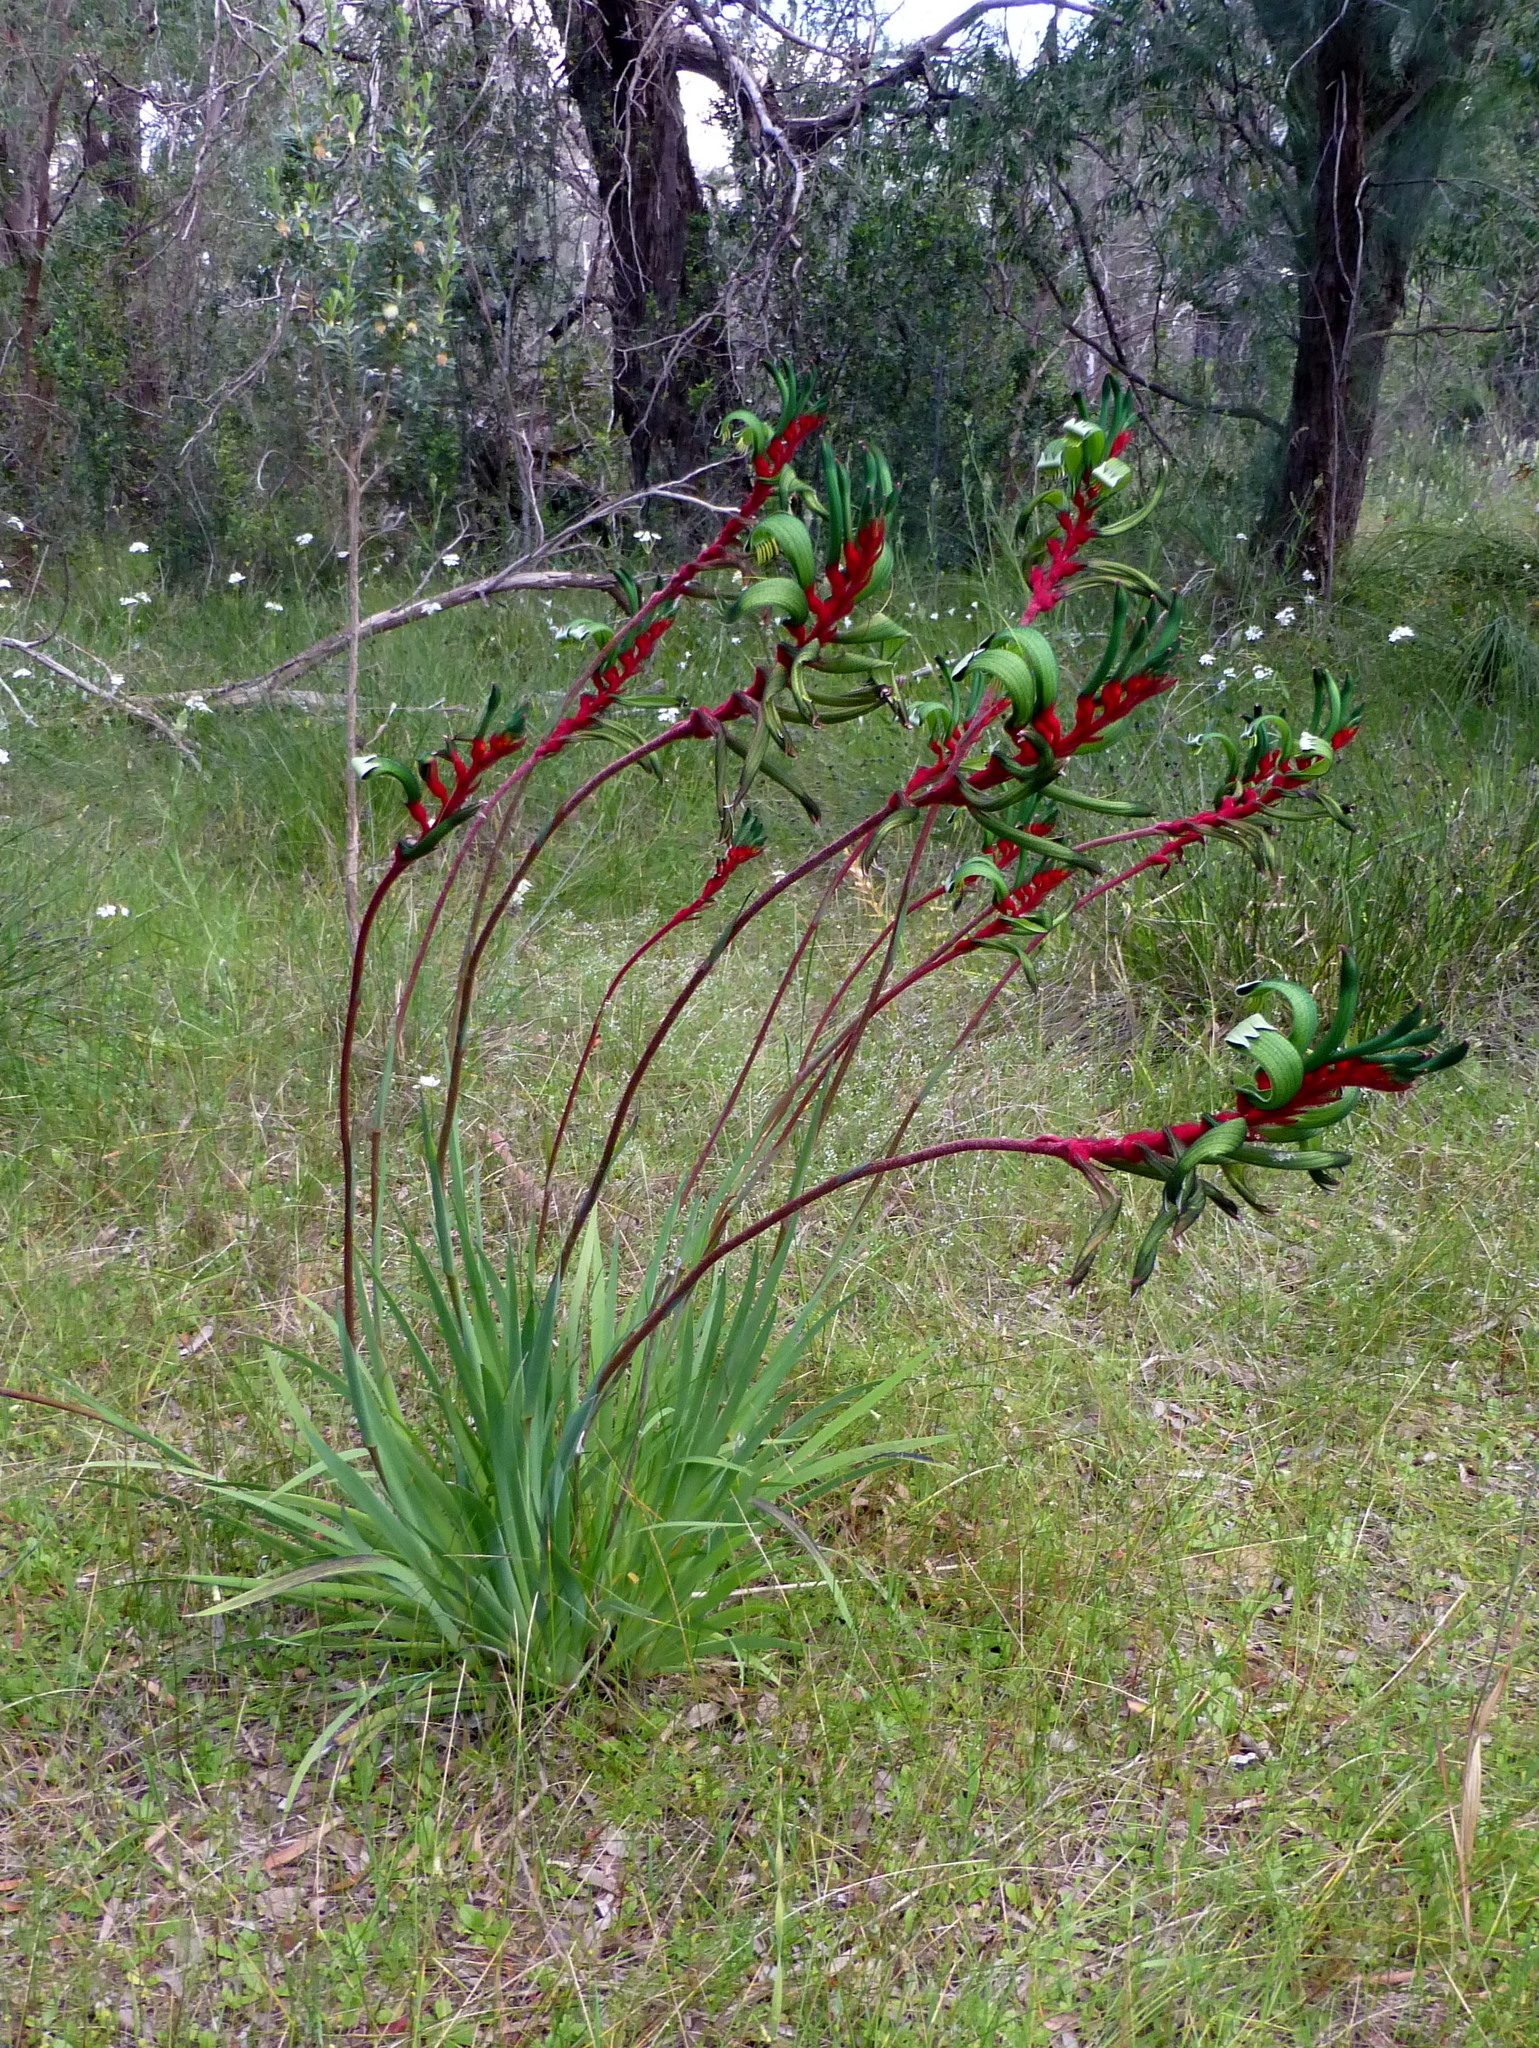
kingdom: Plantae
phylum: Tracheophyta
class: Liliopsida
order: Commelinales
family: Haemodoraceae
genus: Anigozanthos
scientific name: Anigozanthos manglesii
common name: Mangles's kangaroo-paw
